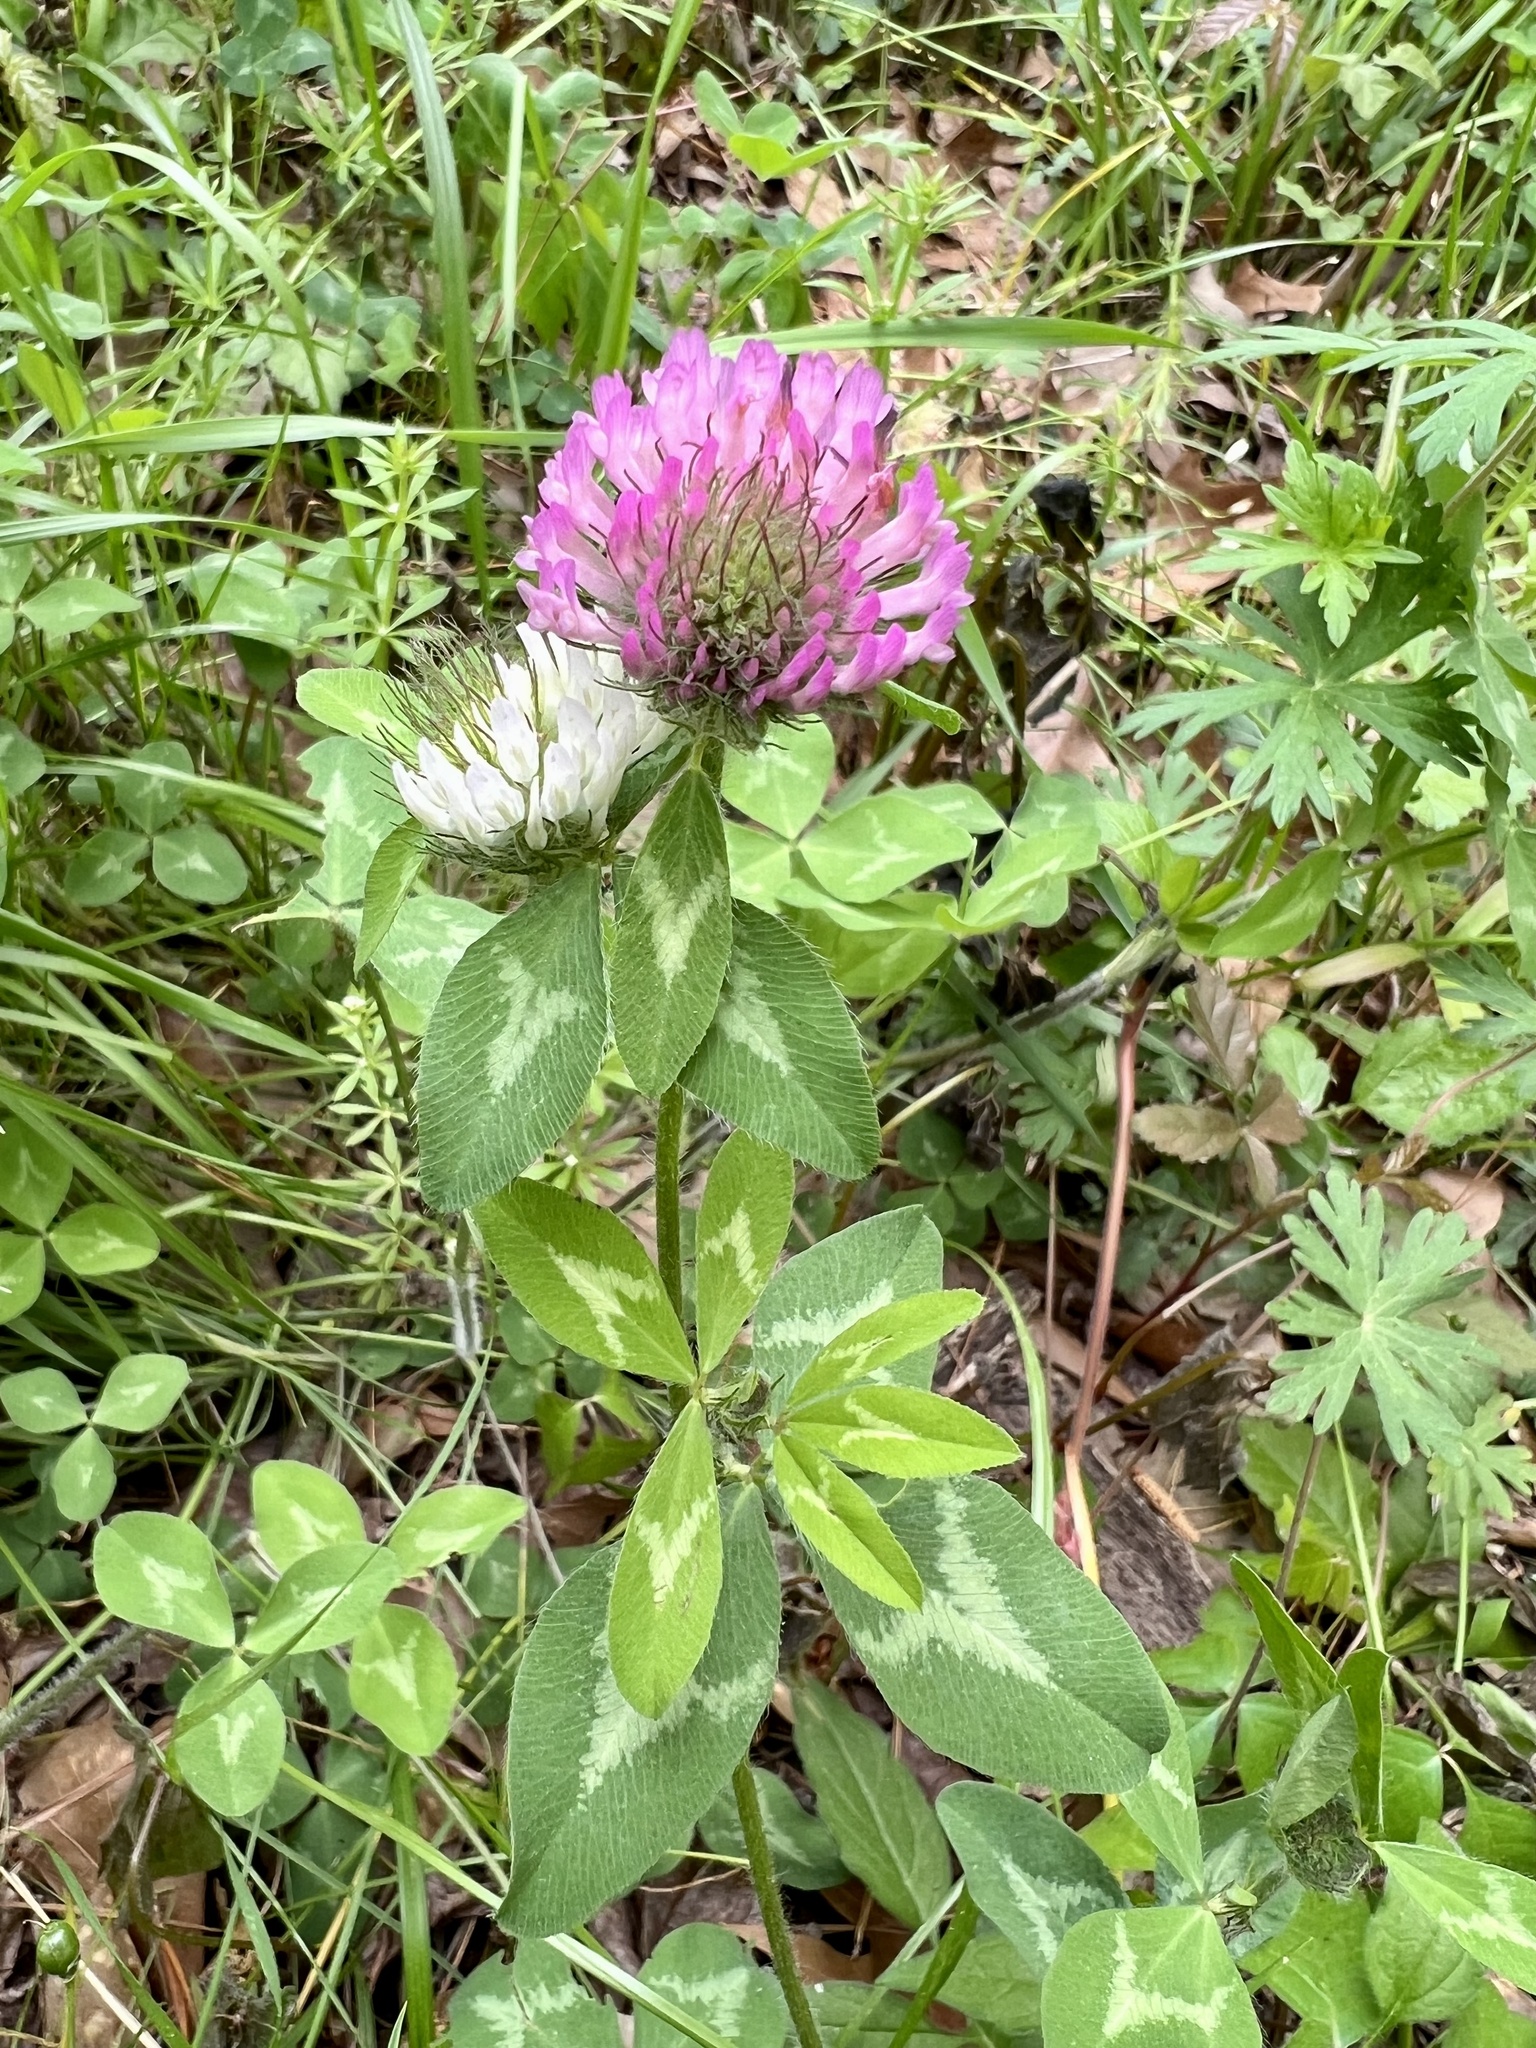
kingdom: Plantae
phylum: Tracheophyta
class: Magnoliopsida
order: Fabales
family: Fabaceae
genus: Trifolium
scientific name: Trifolium pratense
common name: Red clover
